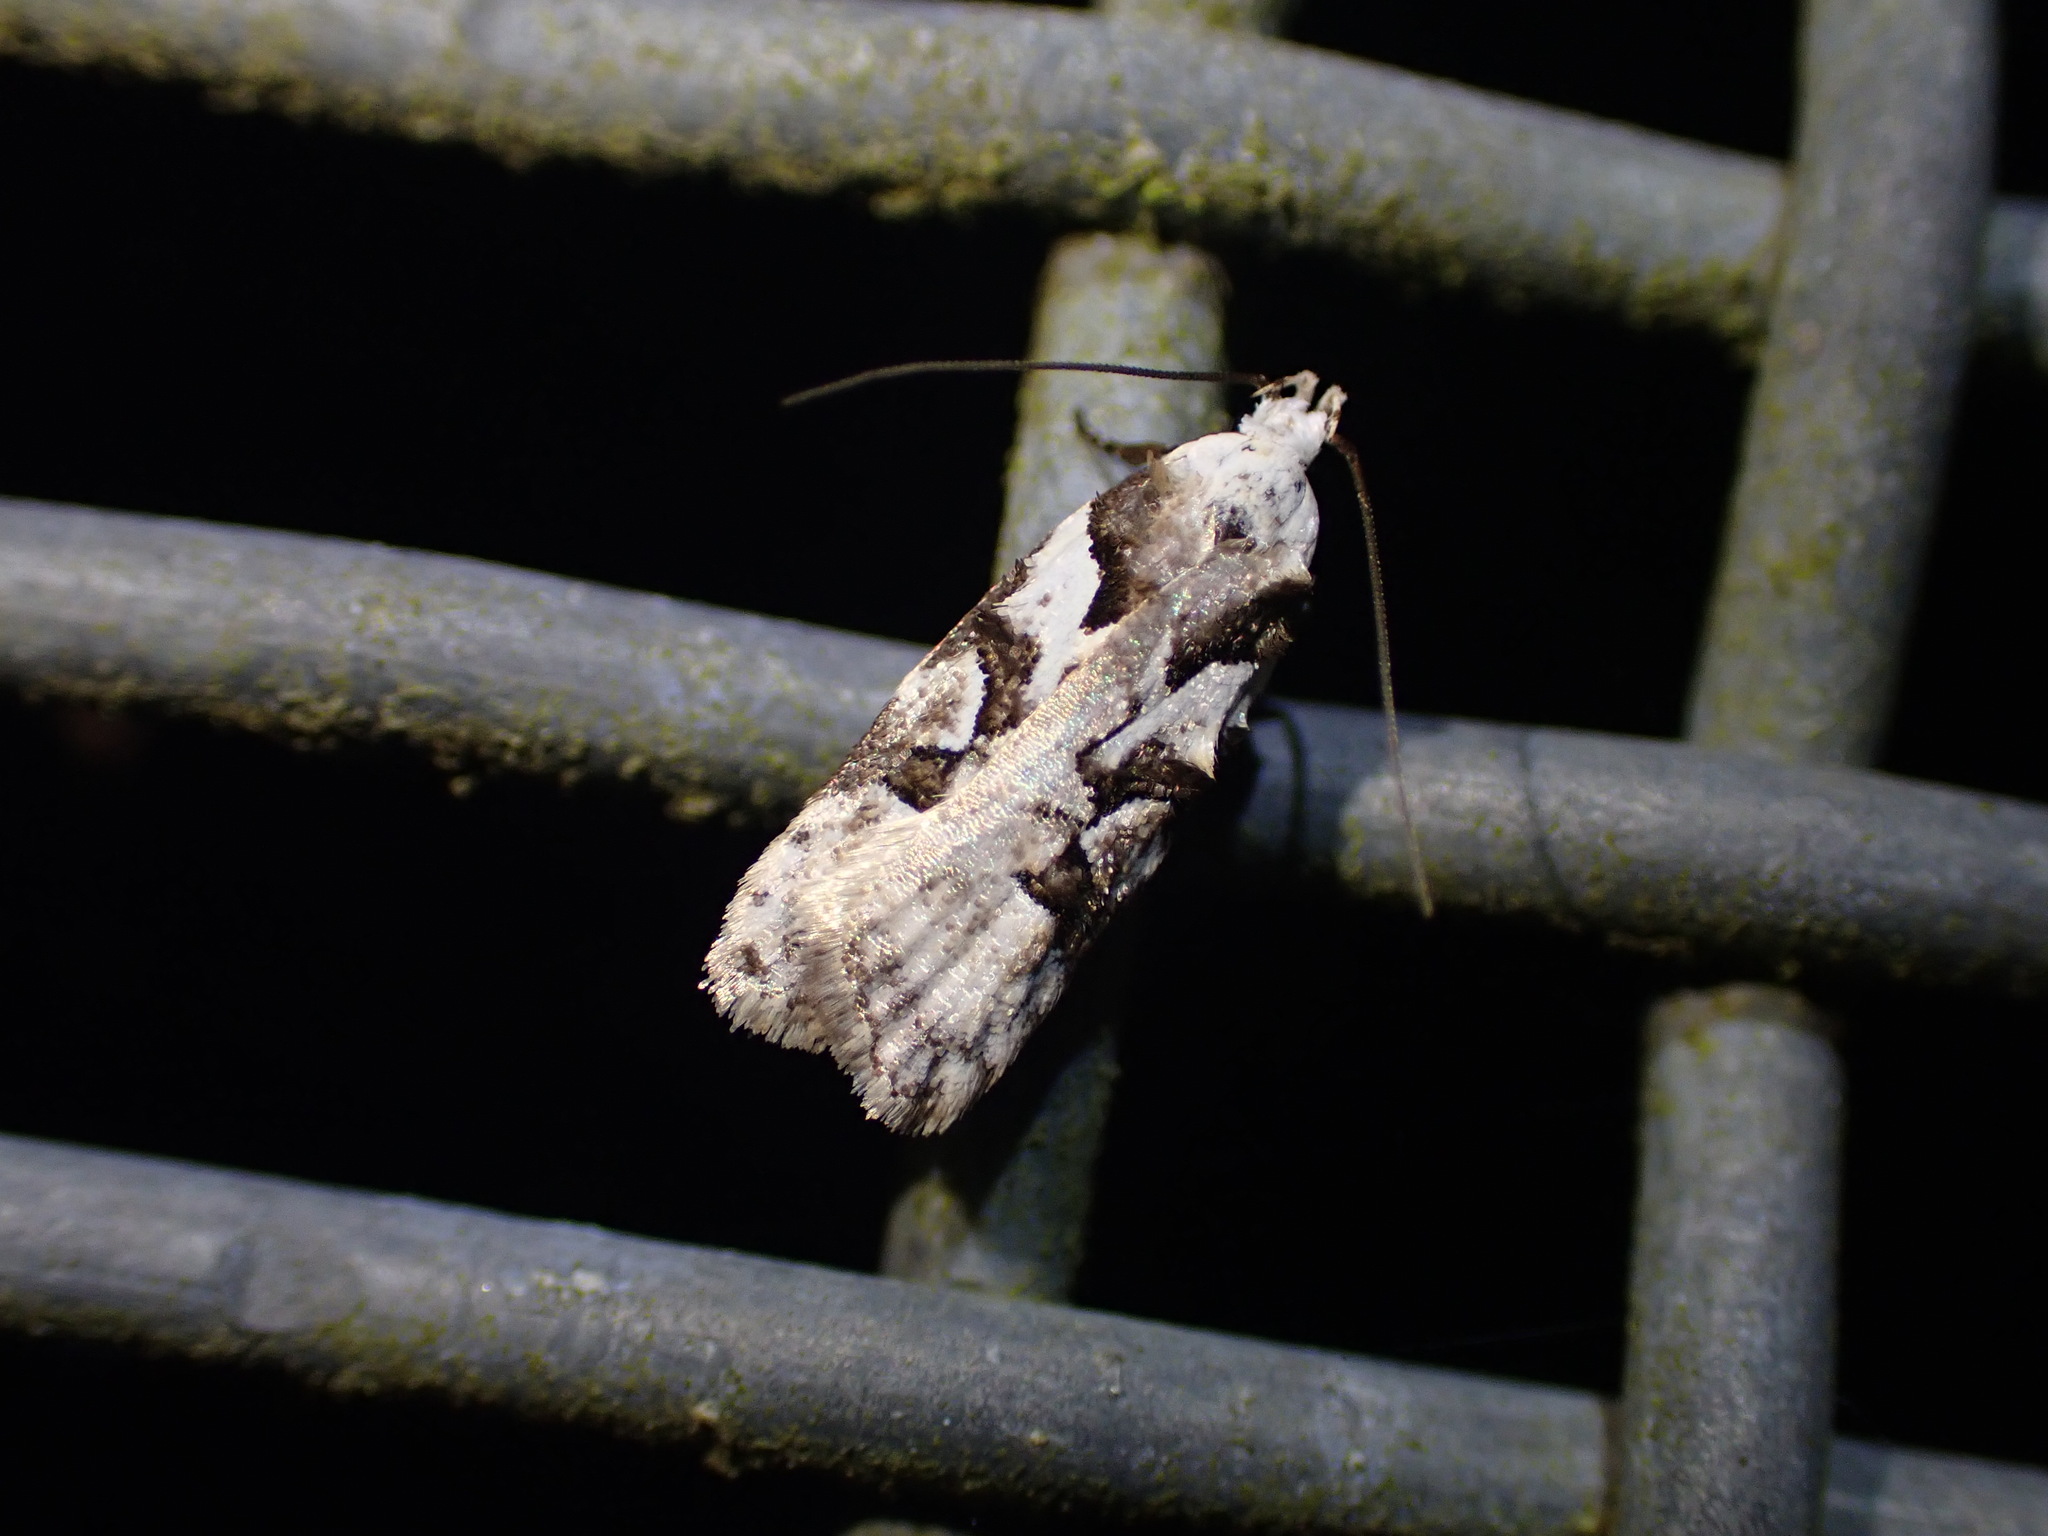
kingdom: Animalia
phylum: Arthropoda
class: Insecta
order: Lepidoptera
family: Oecophoridae
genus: Izatha
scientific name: Izatha epiphanes
